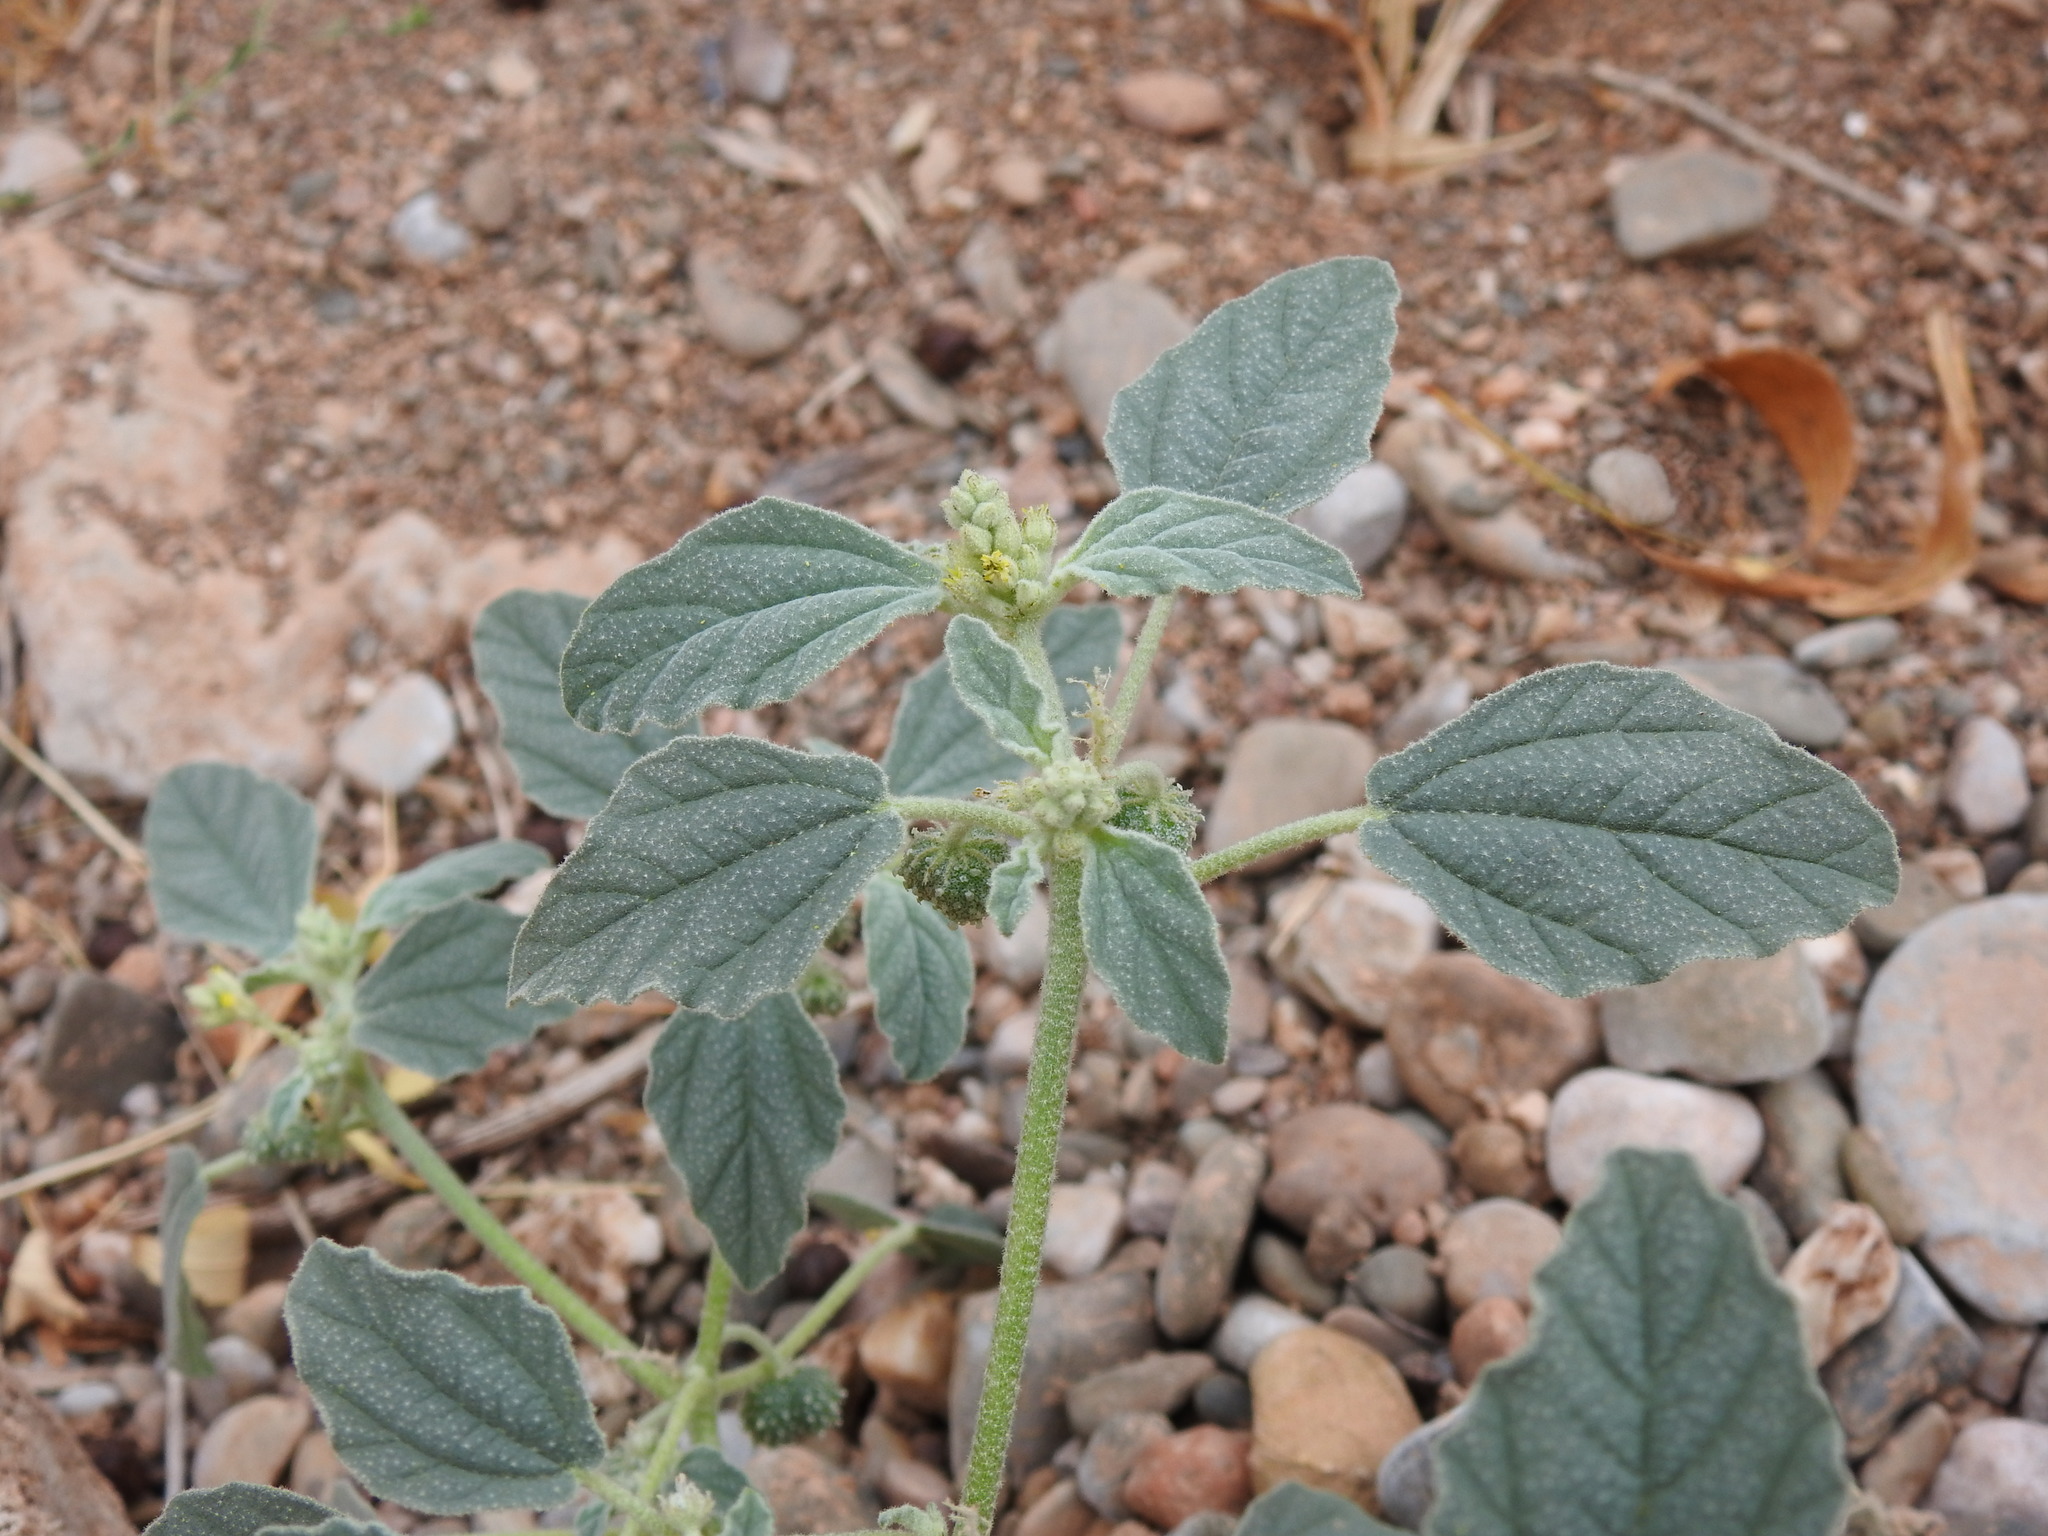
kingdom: Plantae
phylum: Tracheophyta
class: Magnoliopsida
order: Malpighiales
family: Euphorbiaceae
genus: Chrozophora
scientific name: Chrozophora tinctoria
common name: Dyer's litmus
